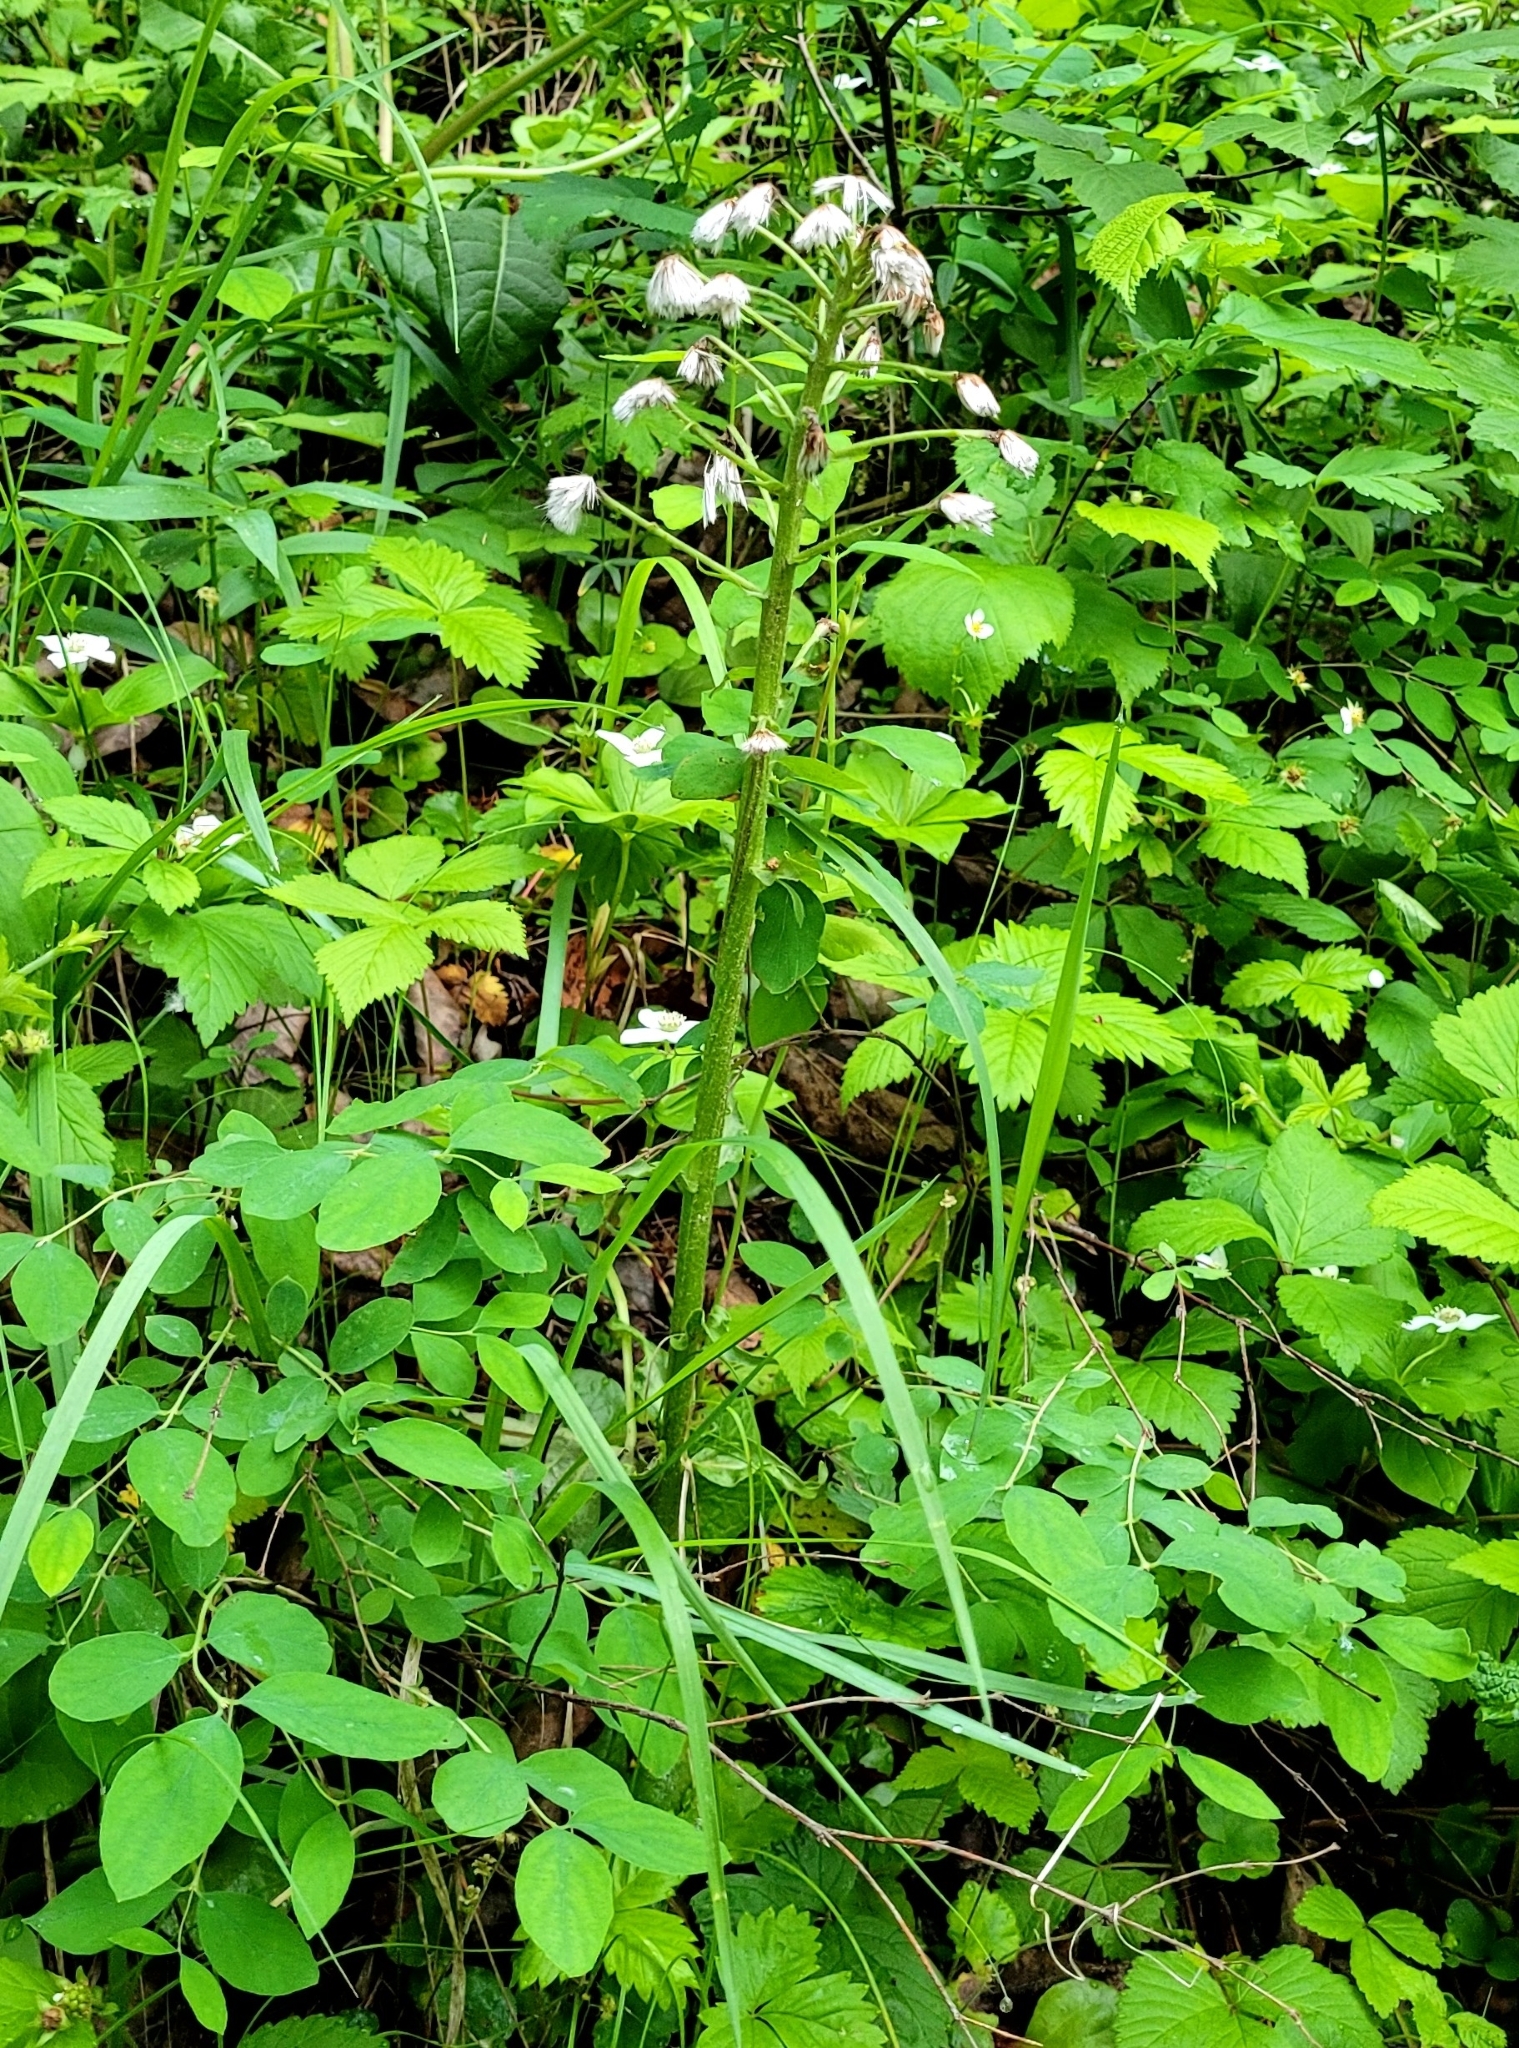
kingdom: Plantae
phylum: Tracheophyta
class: Magnoliopsida
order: Asterales
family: Asteraceae
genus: Petasites
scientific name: Petasites frigidus
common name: Arctic butterbur
